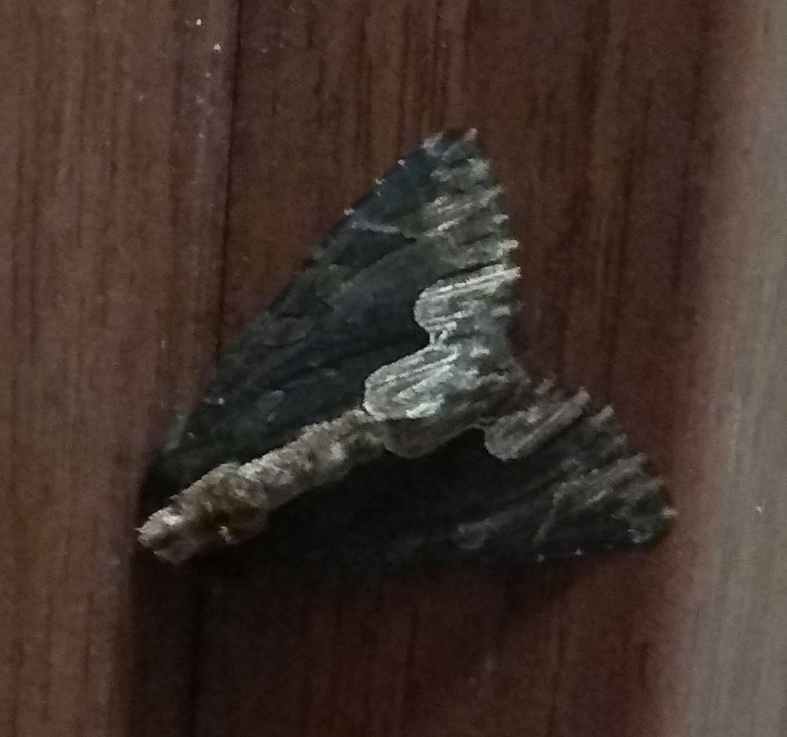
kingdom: Animalia
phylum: Arthropoda
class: Insecta
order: Lepidoptera
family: Noctuidae
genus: Dypterygia
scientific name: Dypterygia scabriuscula
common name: Bird's wing
